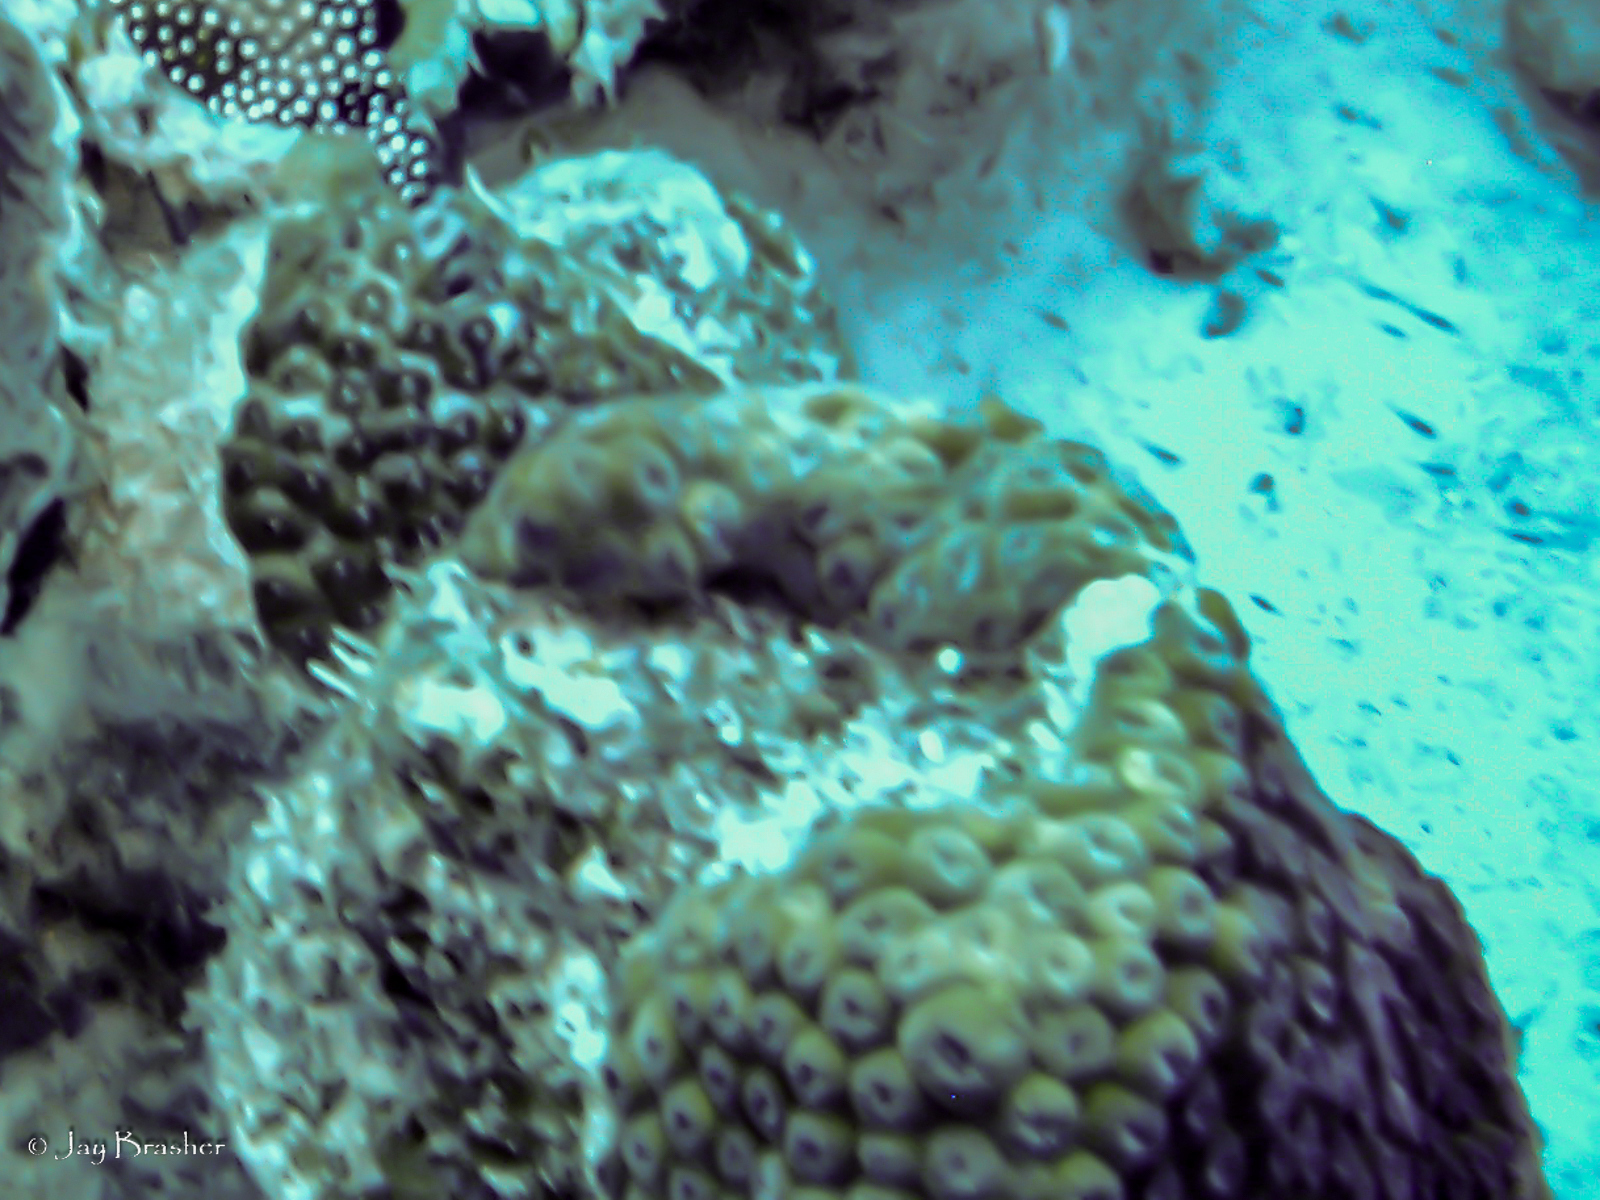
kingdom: Animalia
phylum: Cnidaria
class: Anthozoa
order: Scleractinia
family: Montastraeidae
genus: Montastraea
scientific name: Montastraea cavernosa
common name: Great star coral
